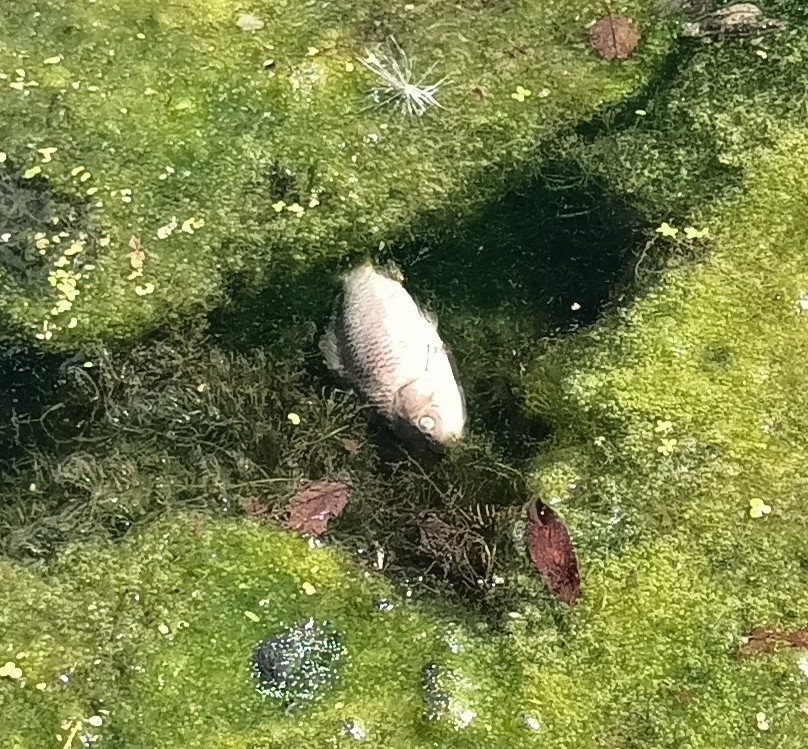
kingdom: Animalia
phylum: Chordata
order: Cypriniformes
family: Cyprinidae
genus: Carassius
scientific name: Carassius gibelio
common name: Prussian carp
